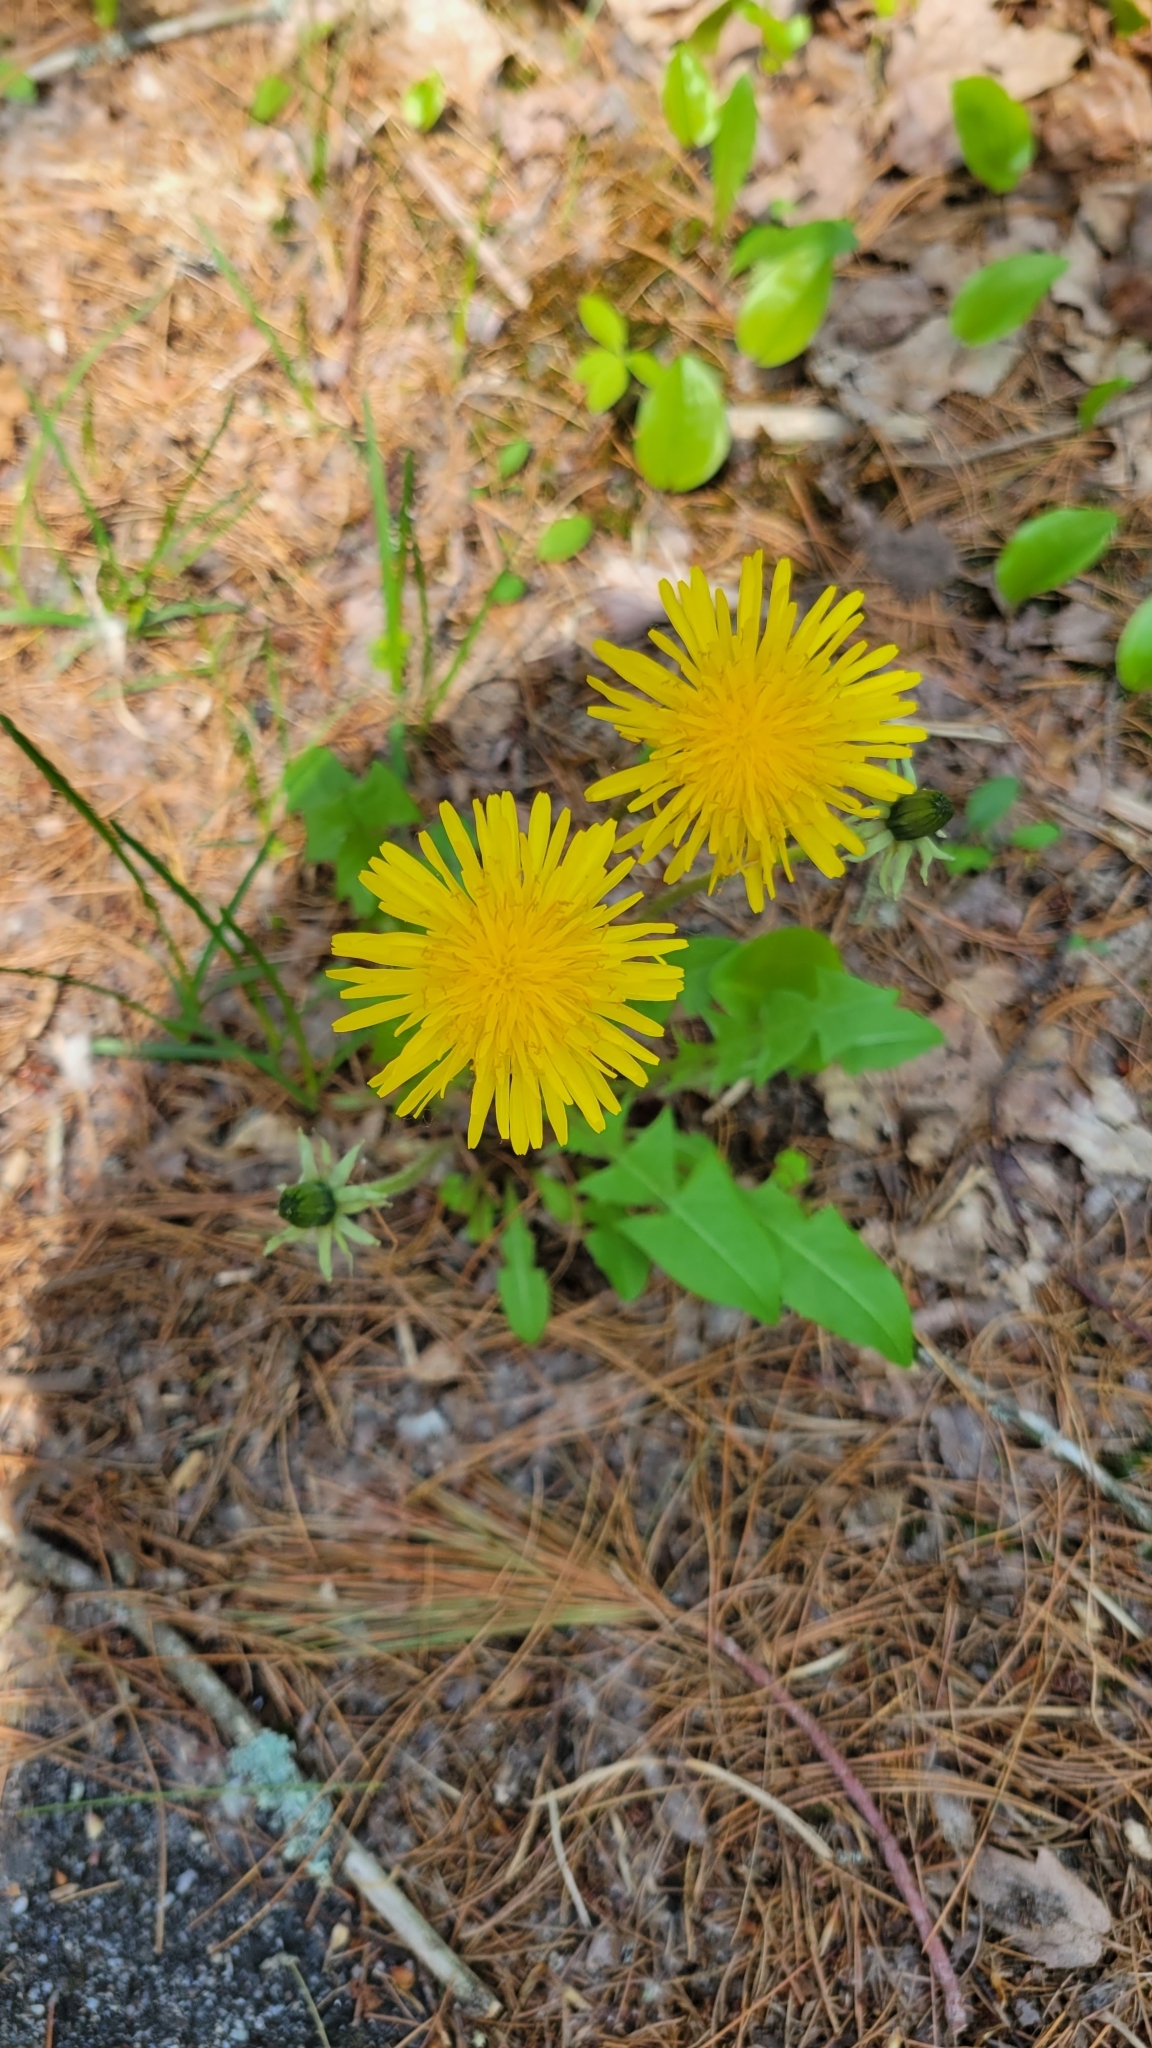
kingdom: Plantae
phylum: Tracheophyta
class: Magnoliopsida
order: Asterales
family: Asteraceae
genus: Taraxacum
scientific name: Taraxacum officinale
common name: Common dandelion
